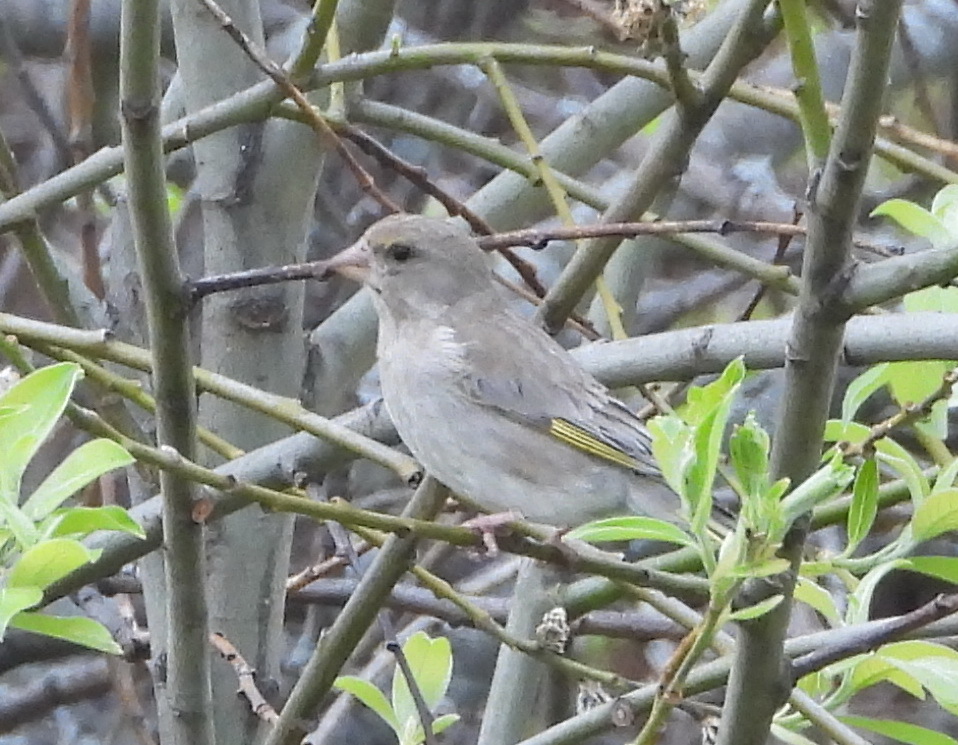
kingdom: Plantae
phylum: Tracheophyta
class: Liliopsida
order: Poales
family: Poaceae
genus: Chloris
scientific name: Chloris chloris
